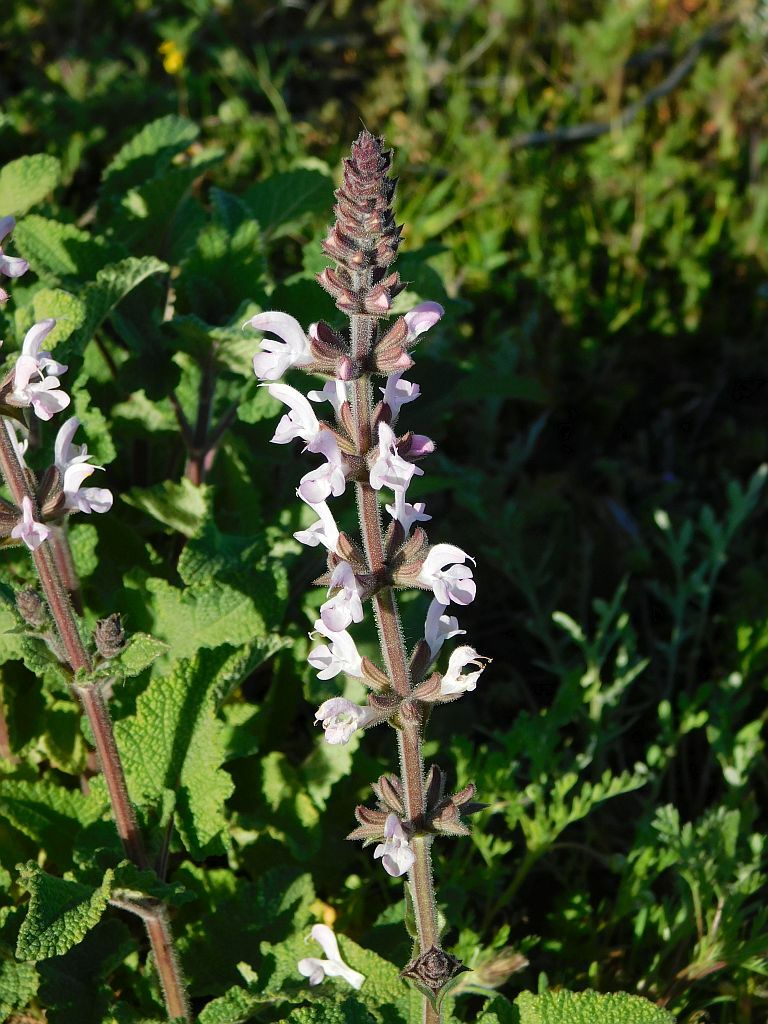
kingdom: Plantae
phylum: Tracheophyta
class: Magnoliopsida
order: Lamiales
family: Lamiaceae
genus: Salvia
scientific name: Salvia disermas
